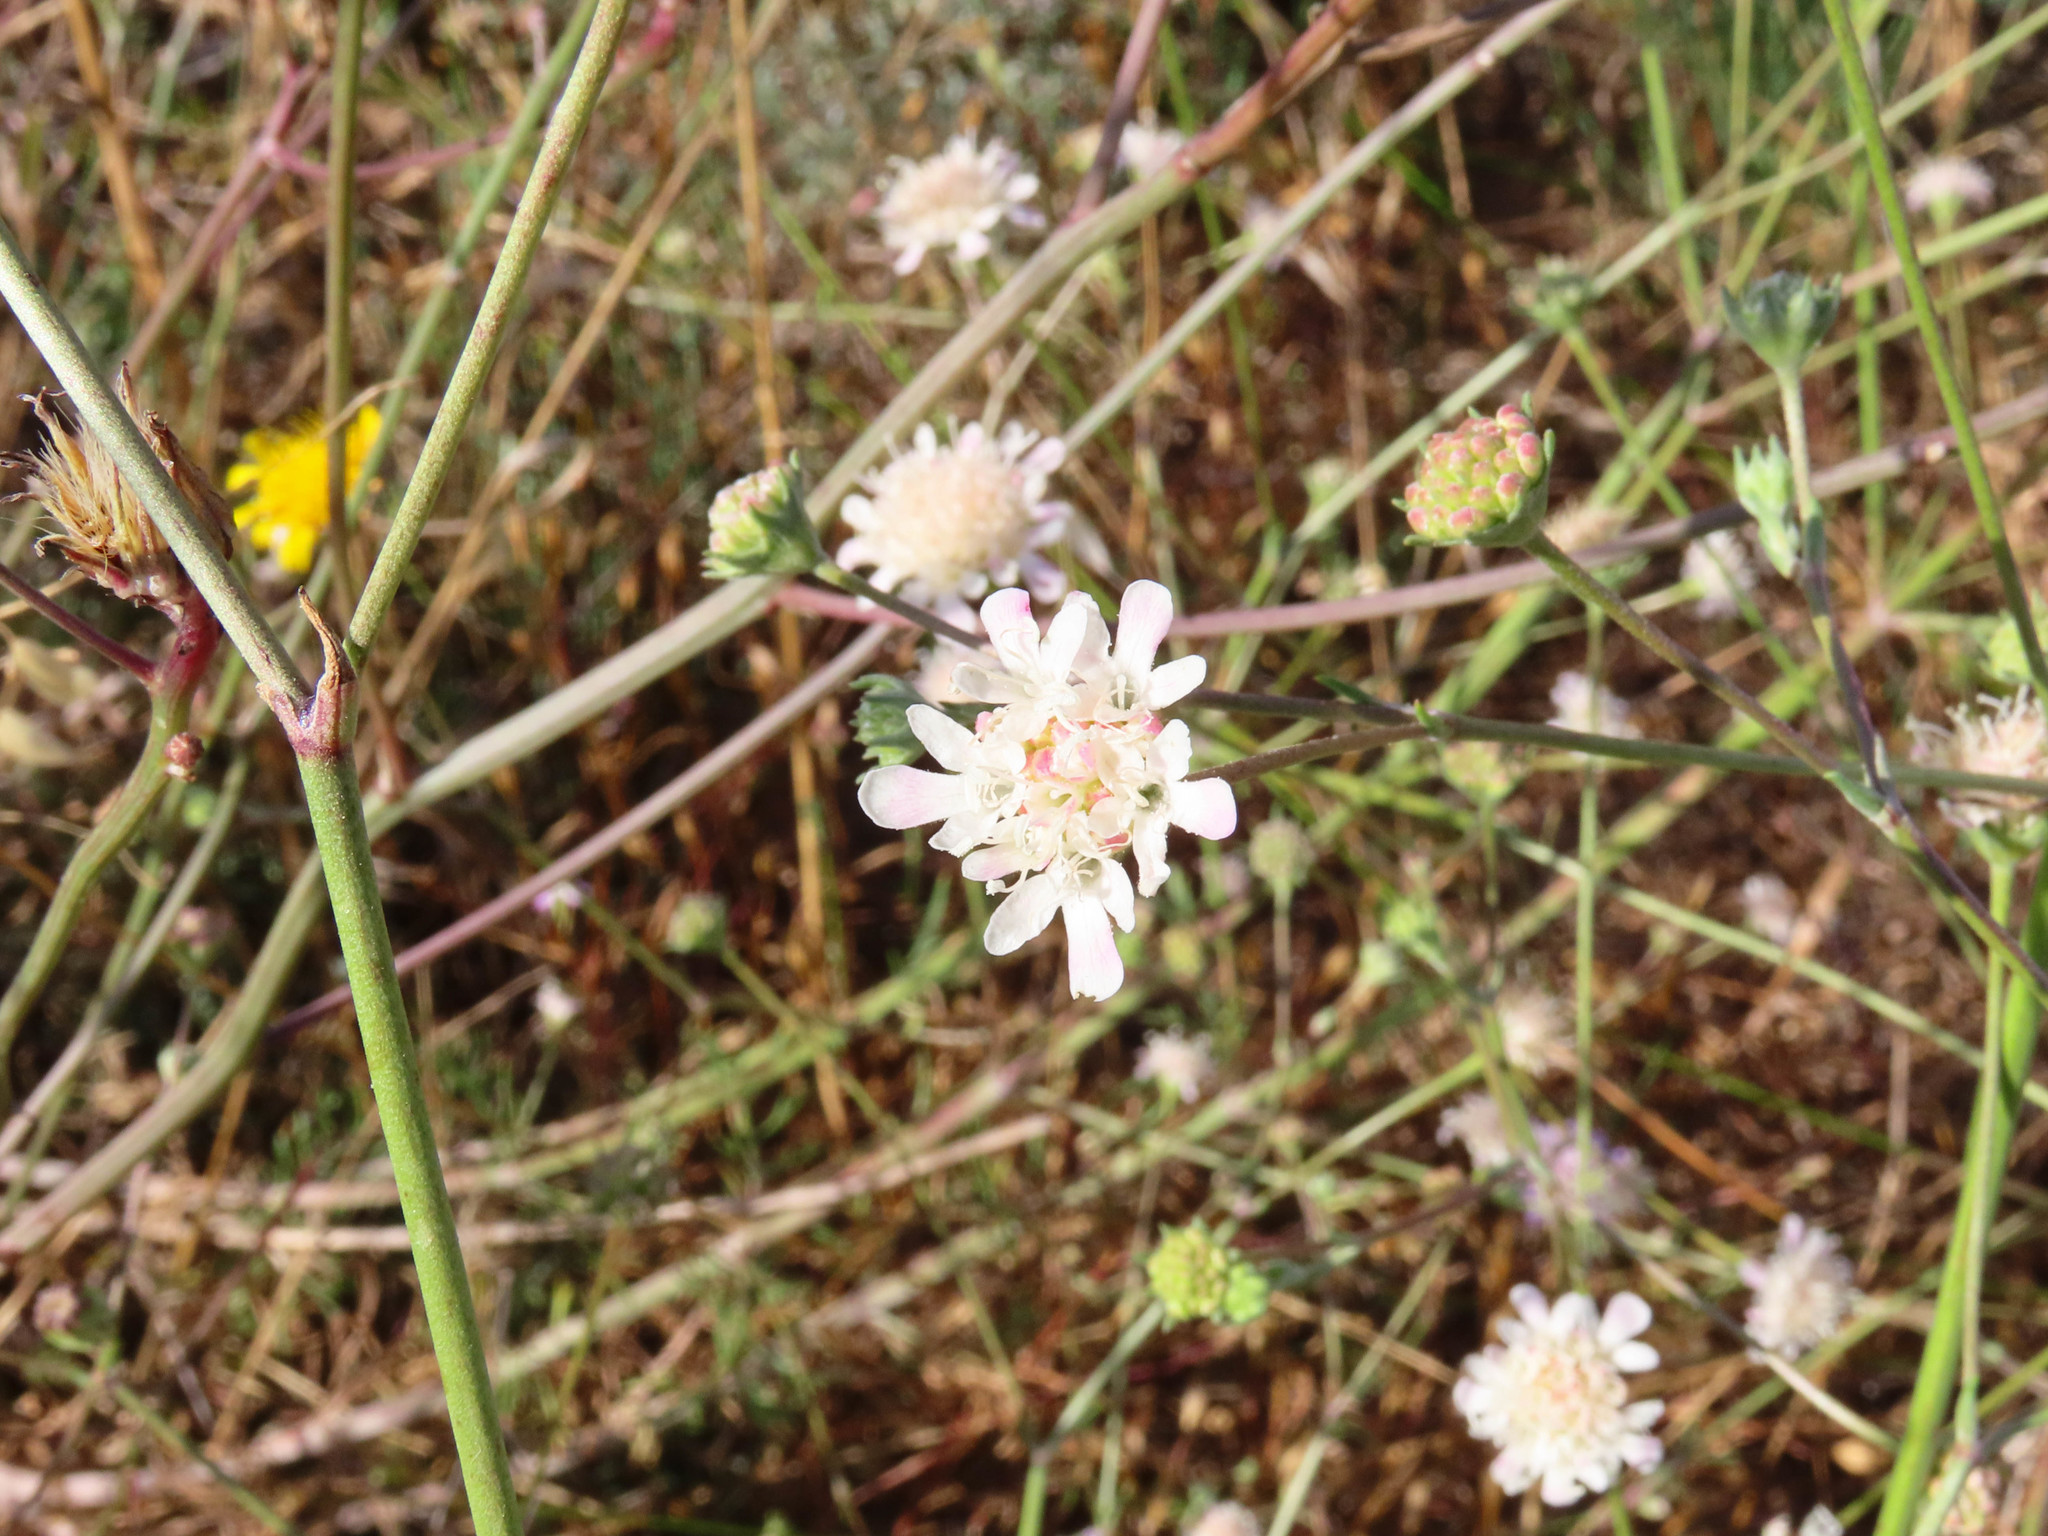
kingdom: Plantae
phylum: Tracheophyta
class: Magnoliopsida
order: Dipsacales
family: Caprifoliaceae
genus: Pycnocomon
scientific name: Pycnocomon rutifolium
